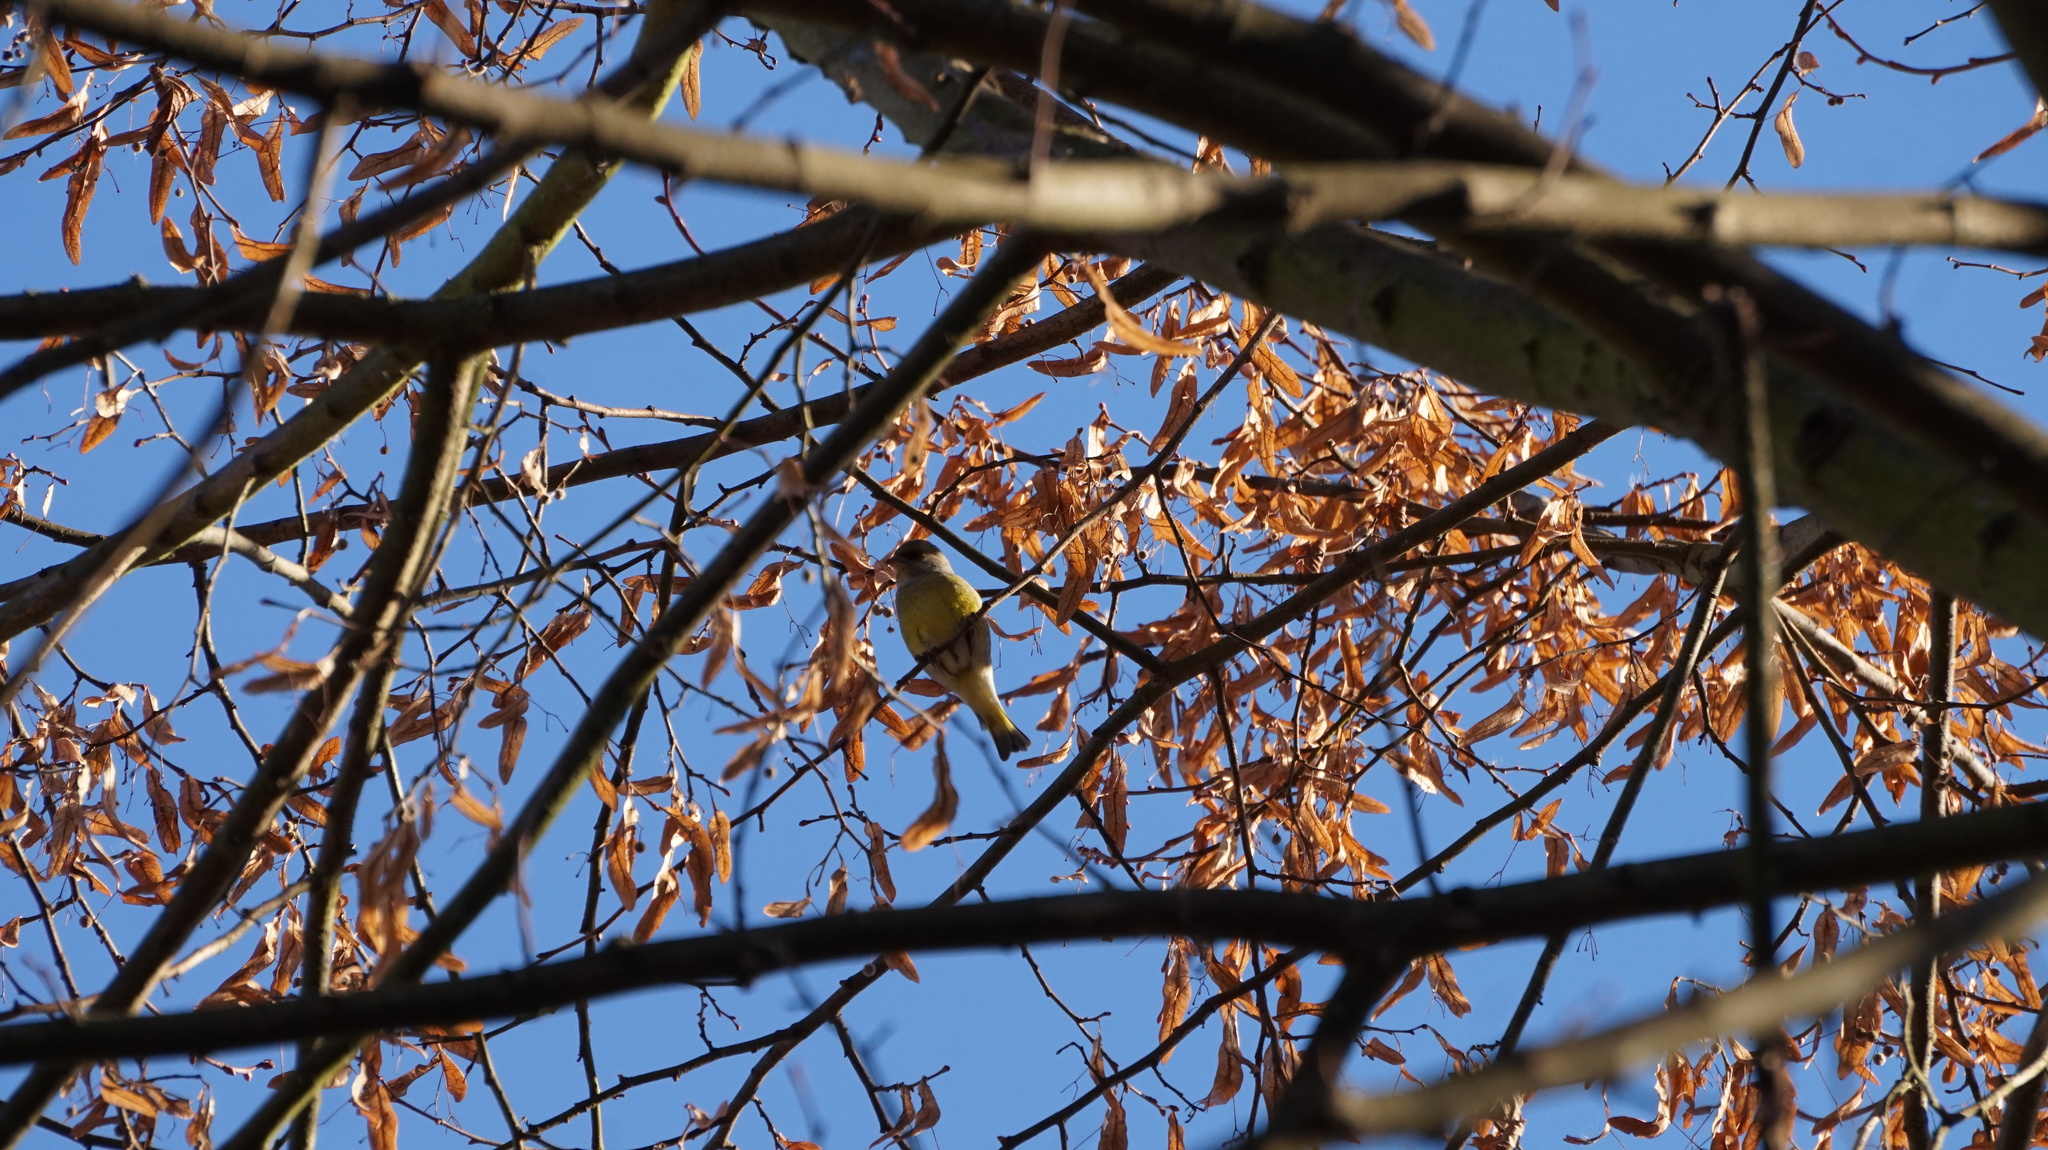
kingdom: Plantae
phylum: Tracheophyta
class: Liliopsida
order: Poales
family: Poaceae
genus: Chloris
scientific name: Chloris chloris
